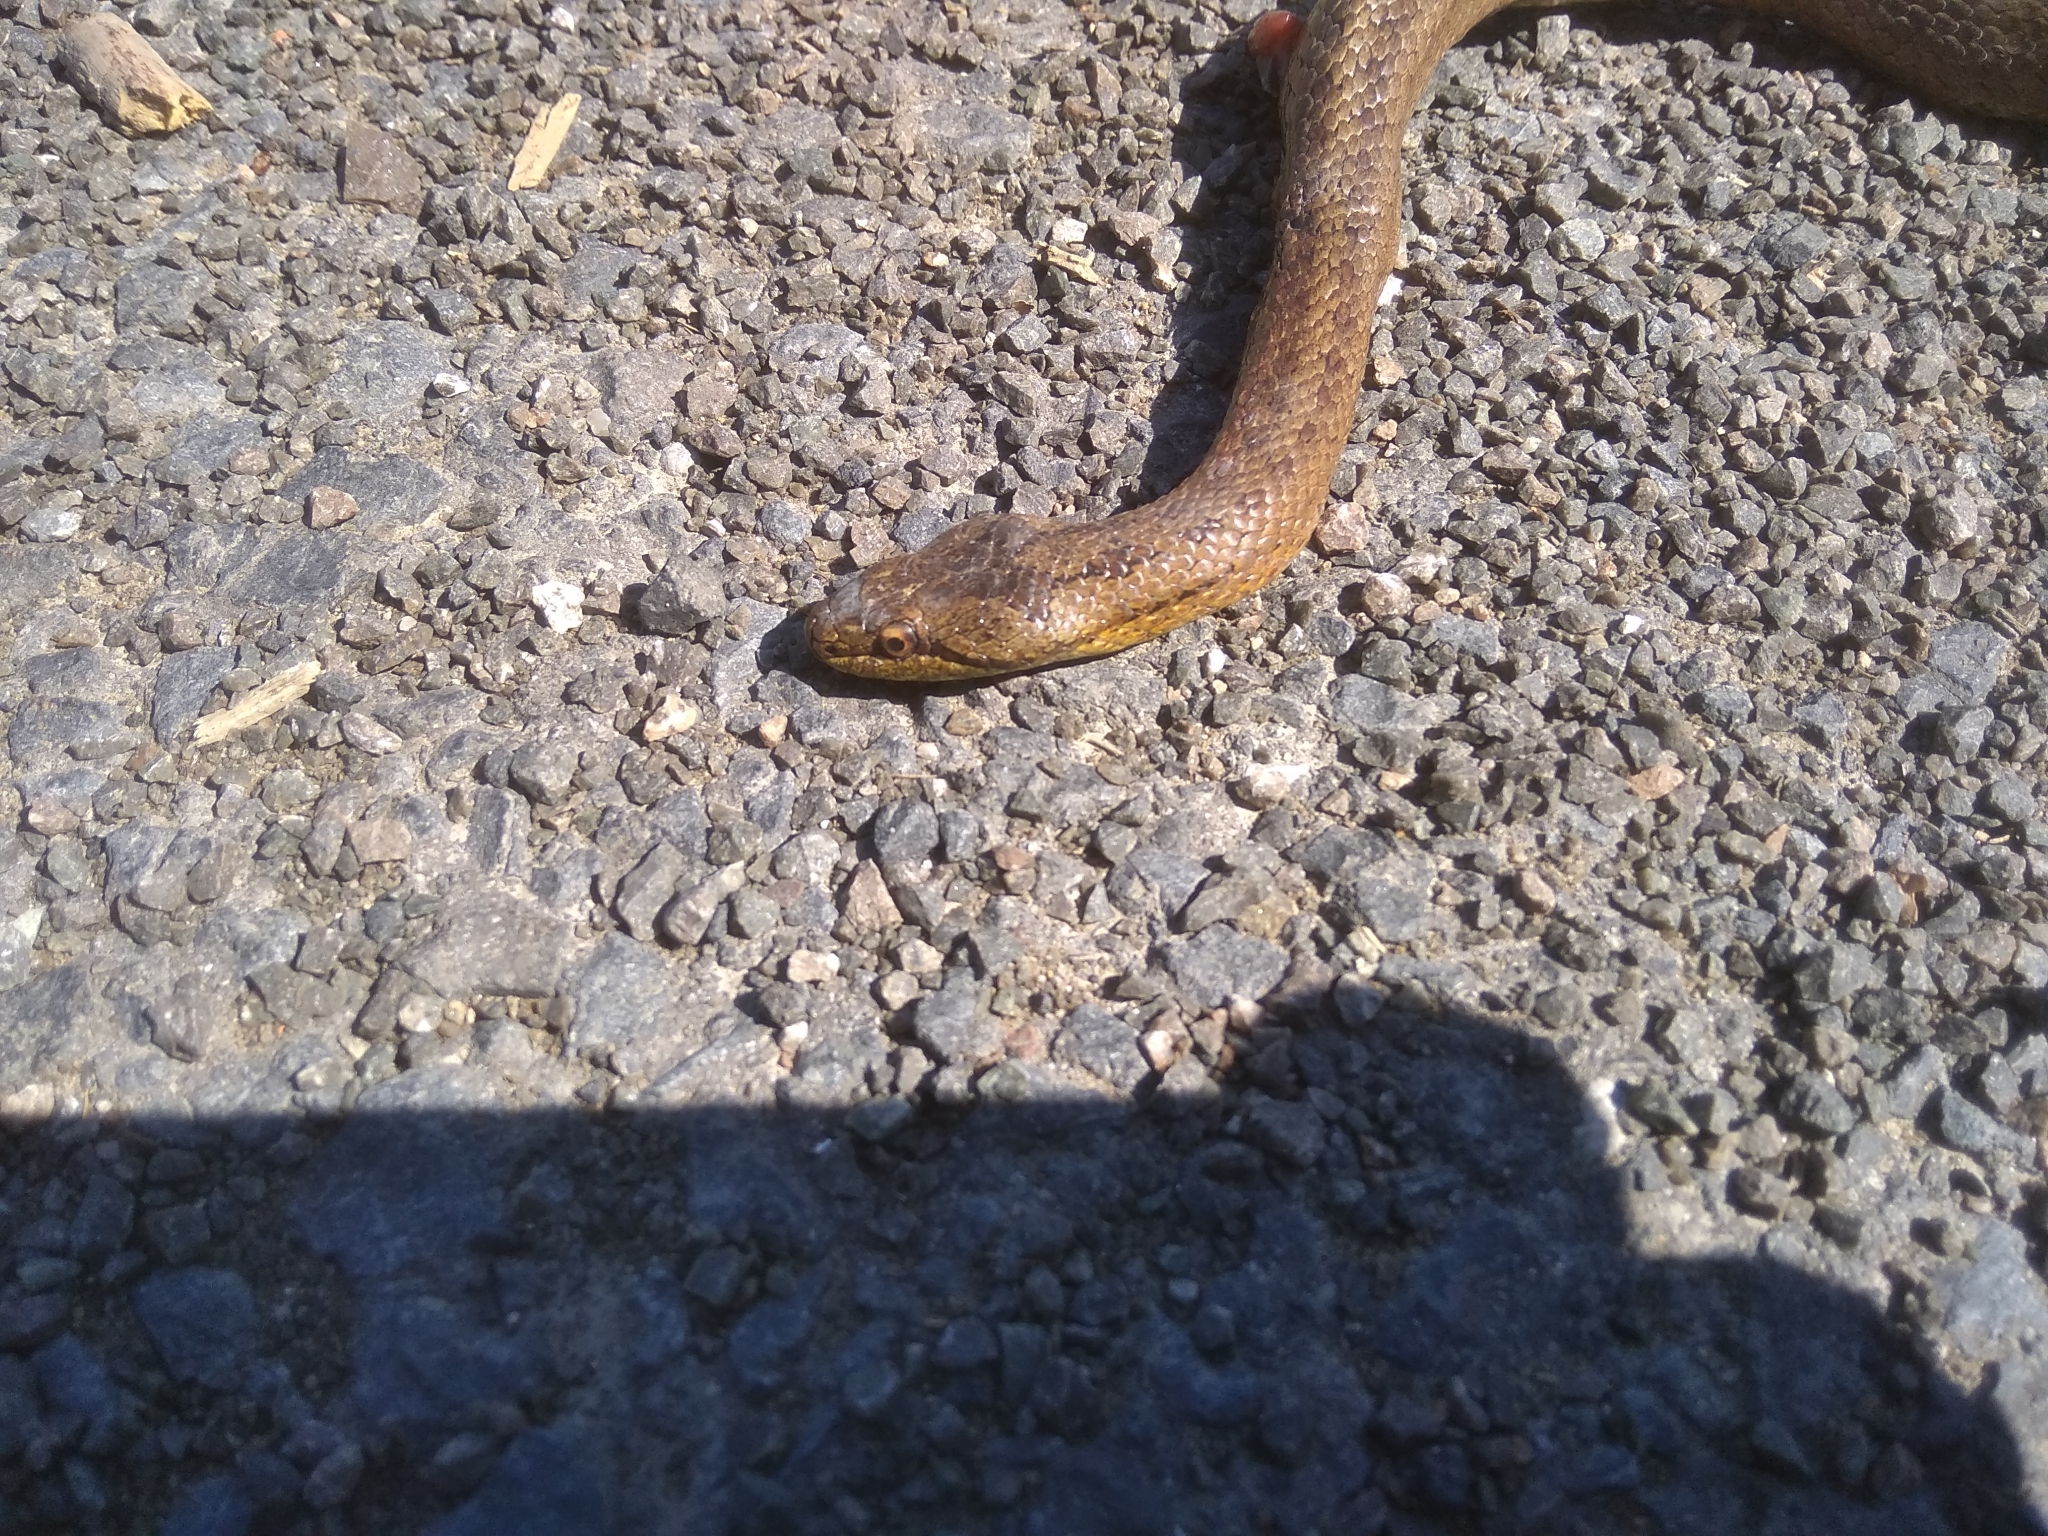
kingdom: Animalia
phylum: Chordata
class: Squamata
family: Colubridae
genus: Coronella
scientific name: Coronella austriaca
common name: Smooth snake
